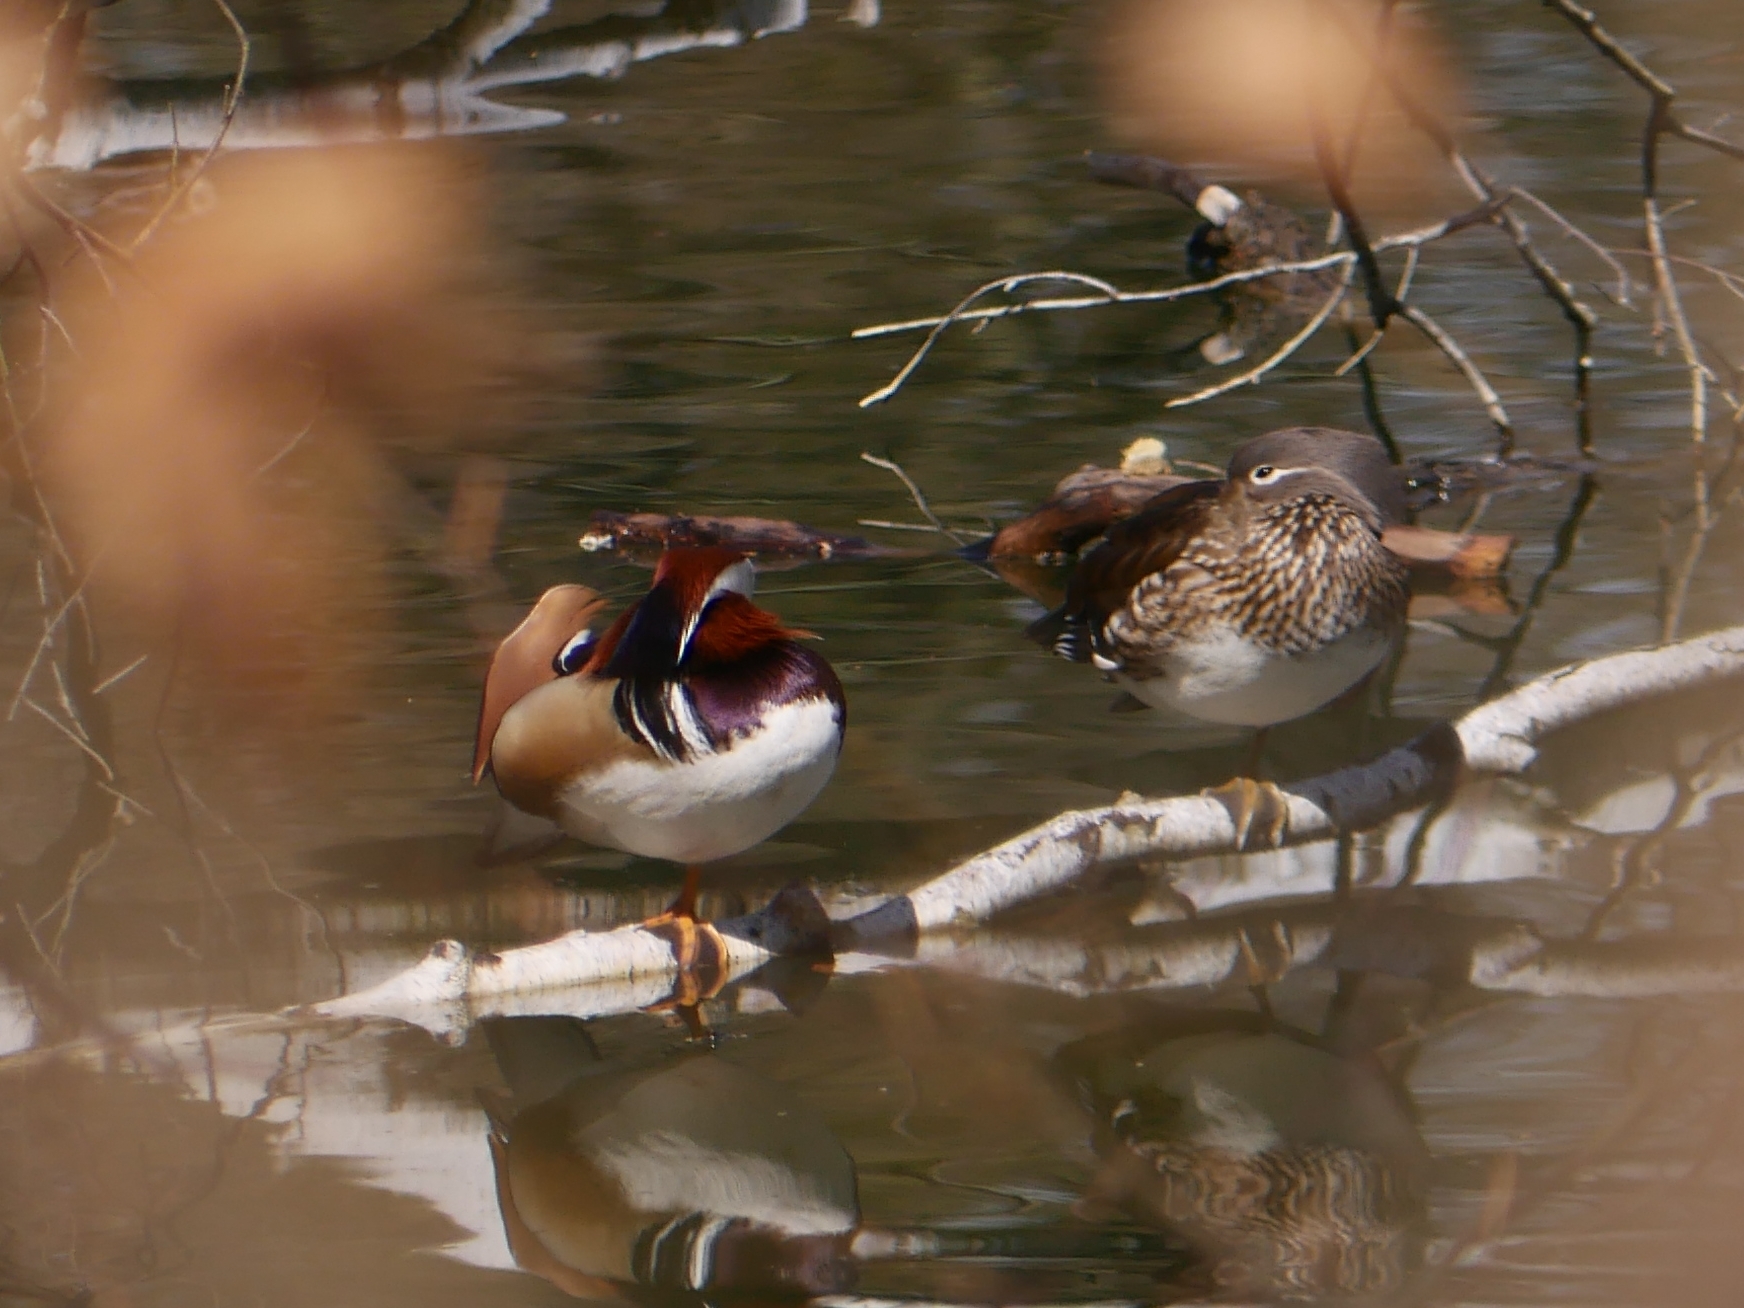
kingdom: Animalia
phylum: Chordata
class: Aves
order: Anseriformes
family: Anatidae
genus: Aix
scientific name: Aix galericulata
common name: Mandarin duck
